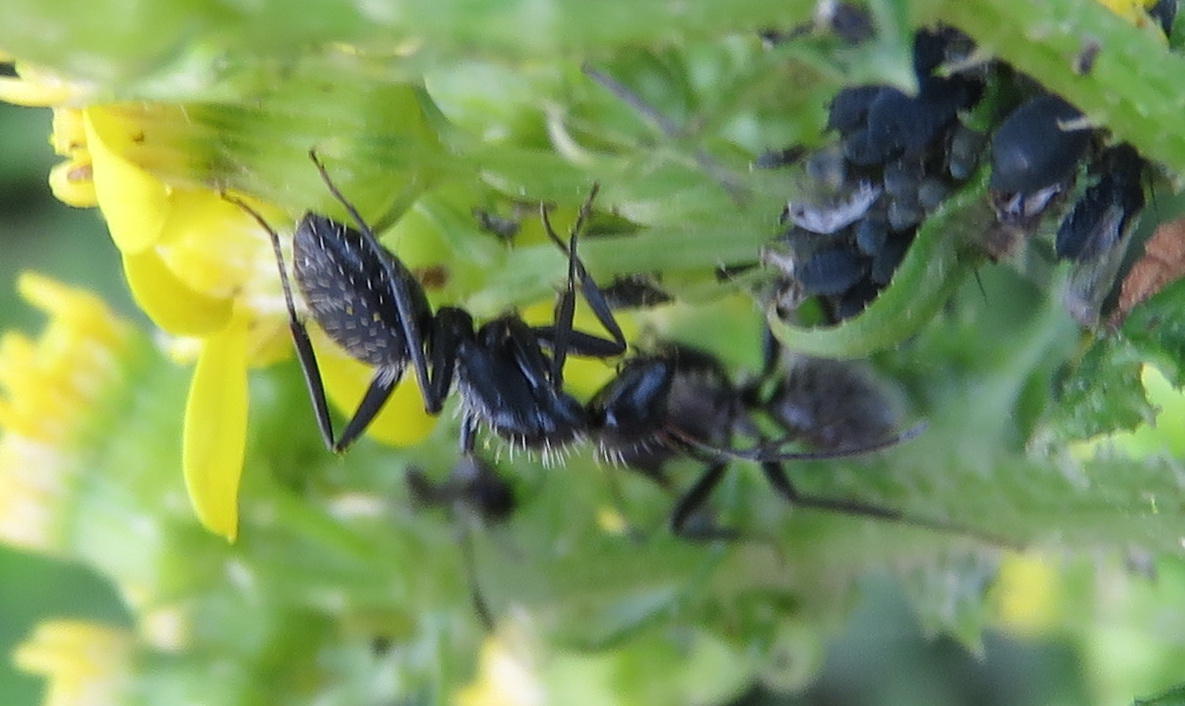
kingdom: Animalia
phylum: Arthropoda
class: Insecta
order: Hymenoptera
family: Formicidae
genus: Camponotus
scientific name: Camponotus niveosetosus
